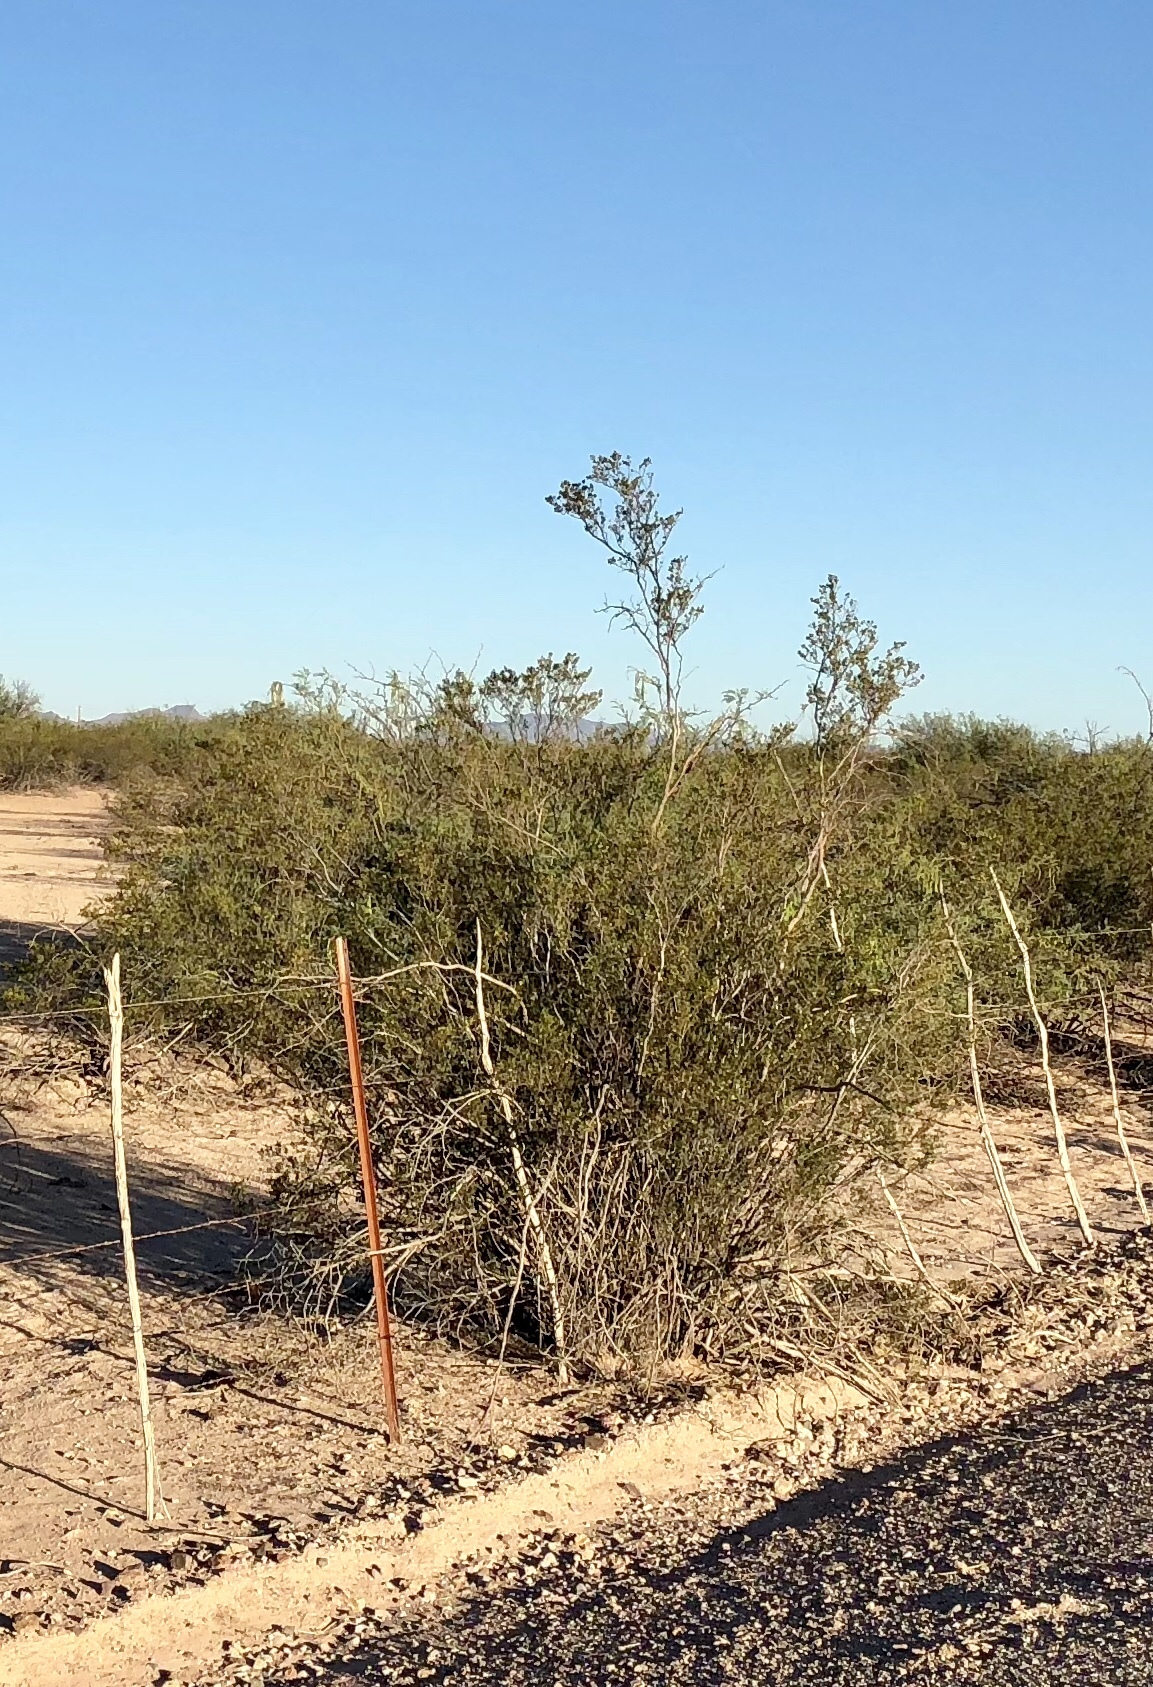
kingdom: Plantae
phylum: Tracheophyta
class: Magnoliopsida
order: Zygophyllales
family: Zygophyllaceae
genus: Larrea
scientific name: Larrea tridentata
